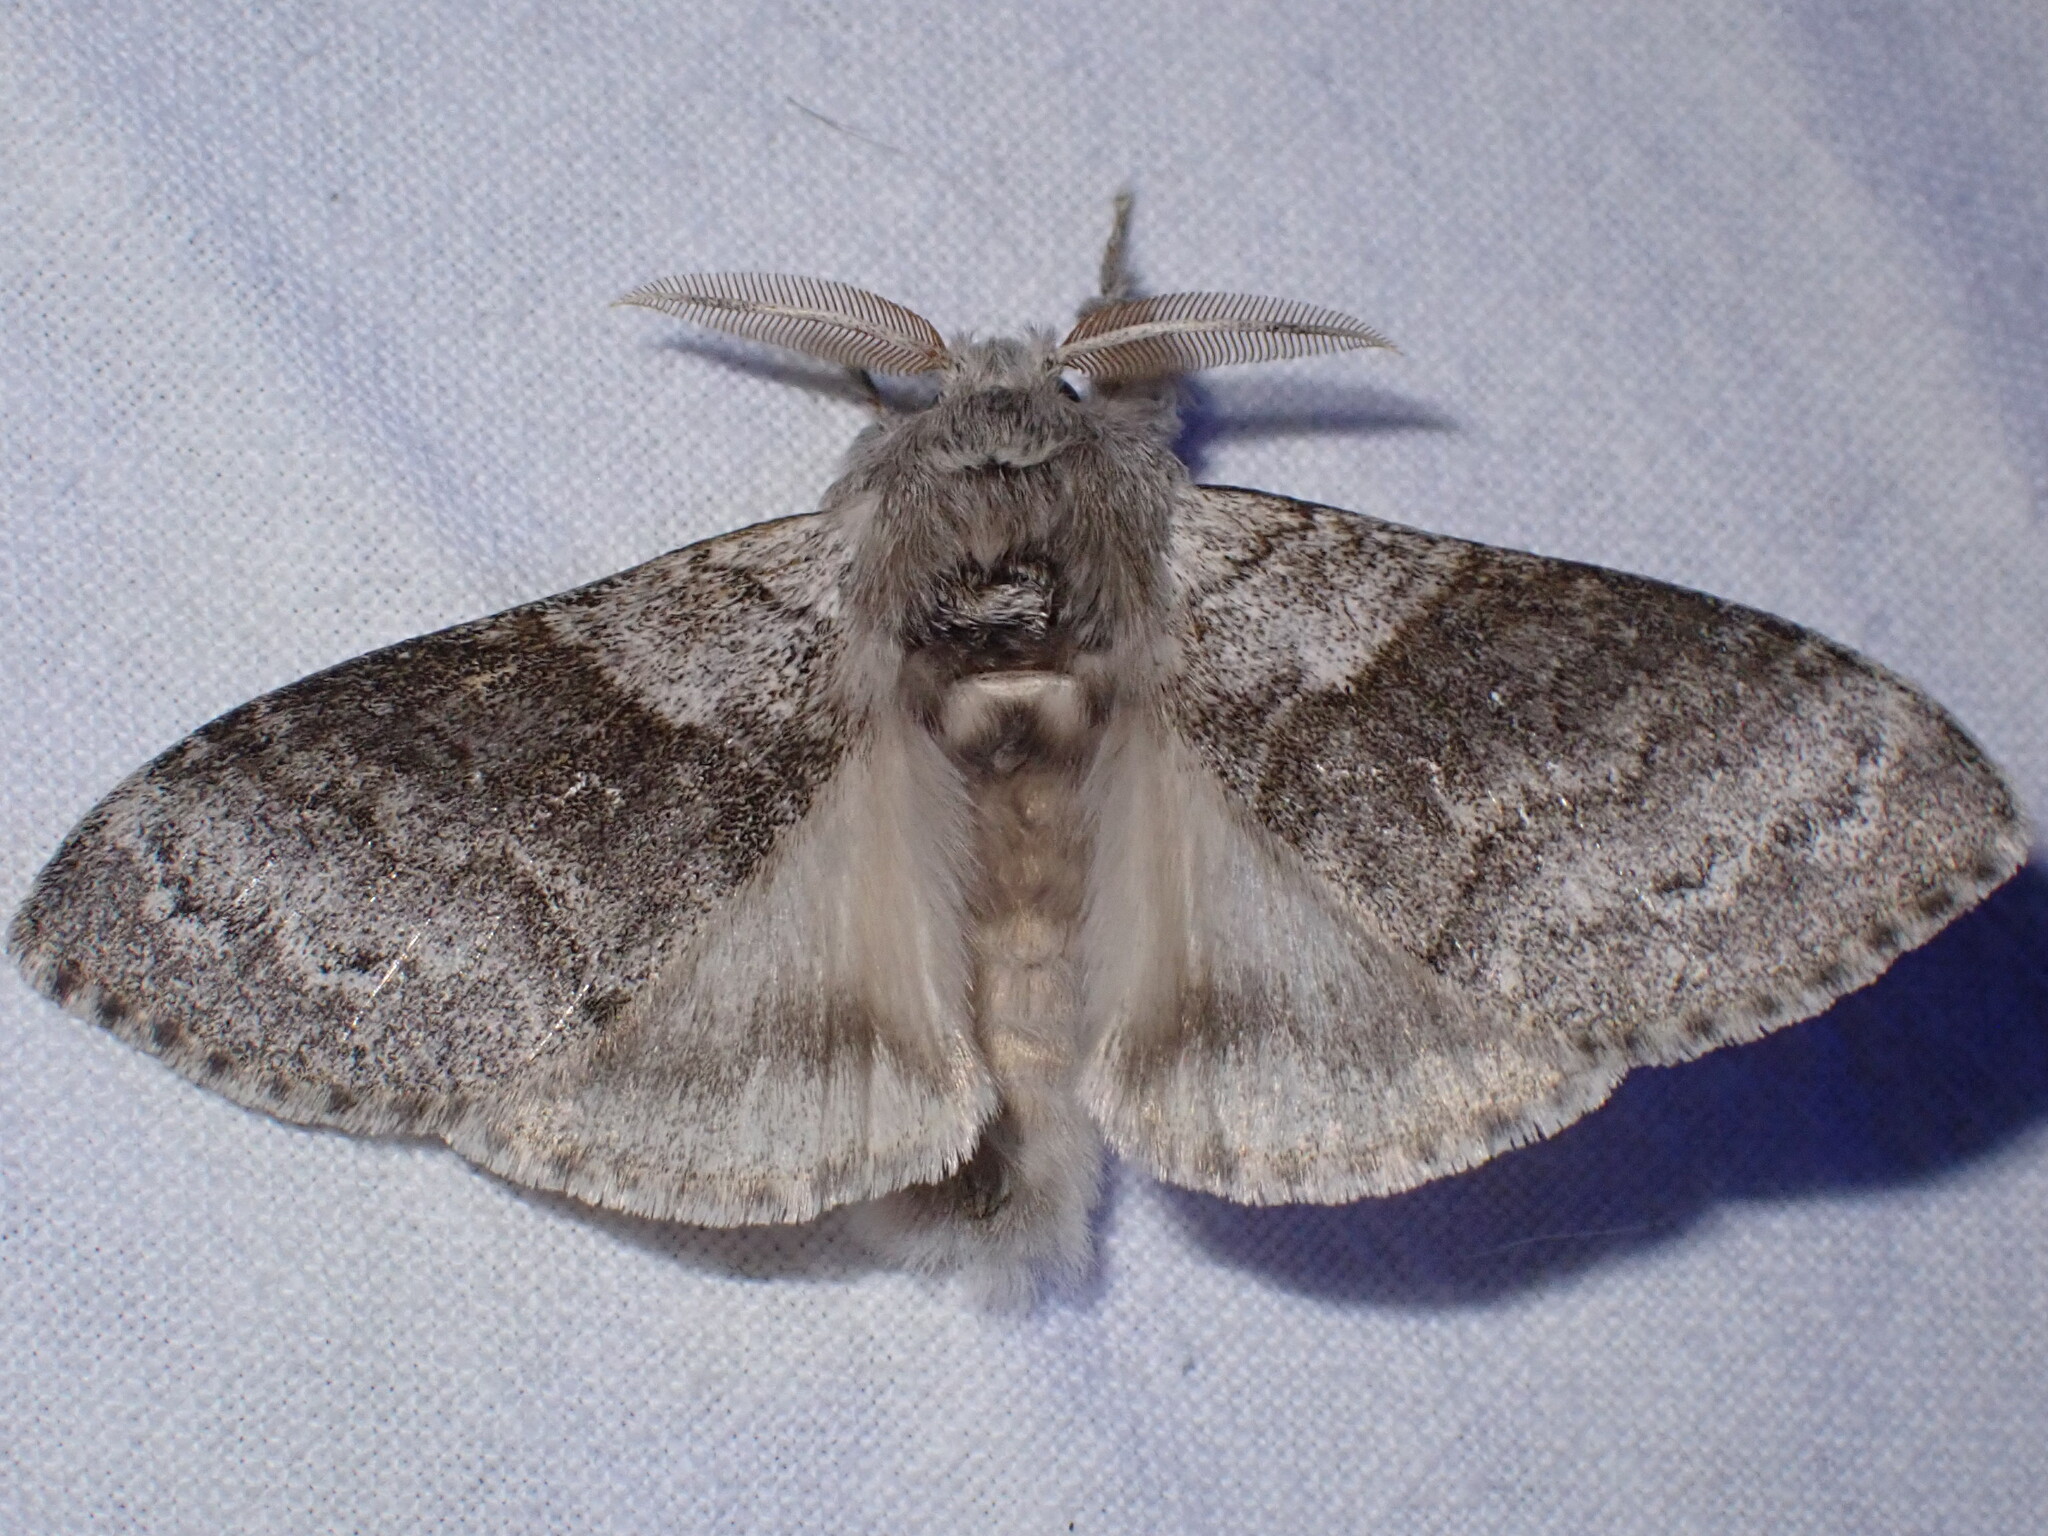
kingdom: Animalia
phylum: Arthropoda
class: Insecta
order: Lepidoptera
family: Erebidae
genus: Calliteara
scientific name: Calliteara pudibunda
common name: Pale tussock
